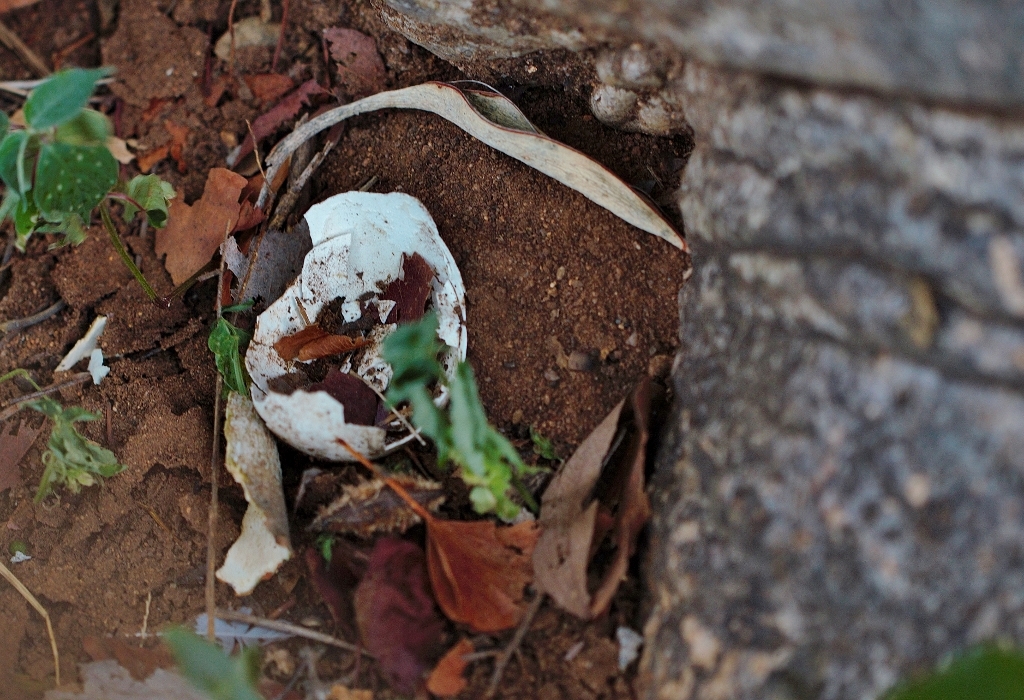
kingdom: Animalia
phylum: Chordata
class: Aves
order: Bucerotiformes
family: Bucorvidae
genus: Bucorvus
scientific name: Bucorvus leadbeateri
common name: Southern ground-hornbill
